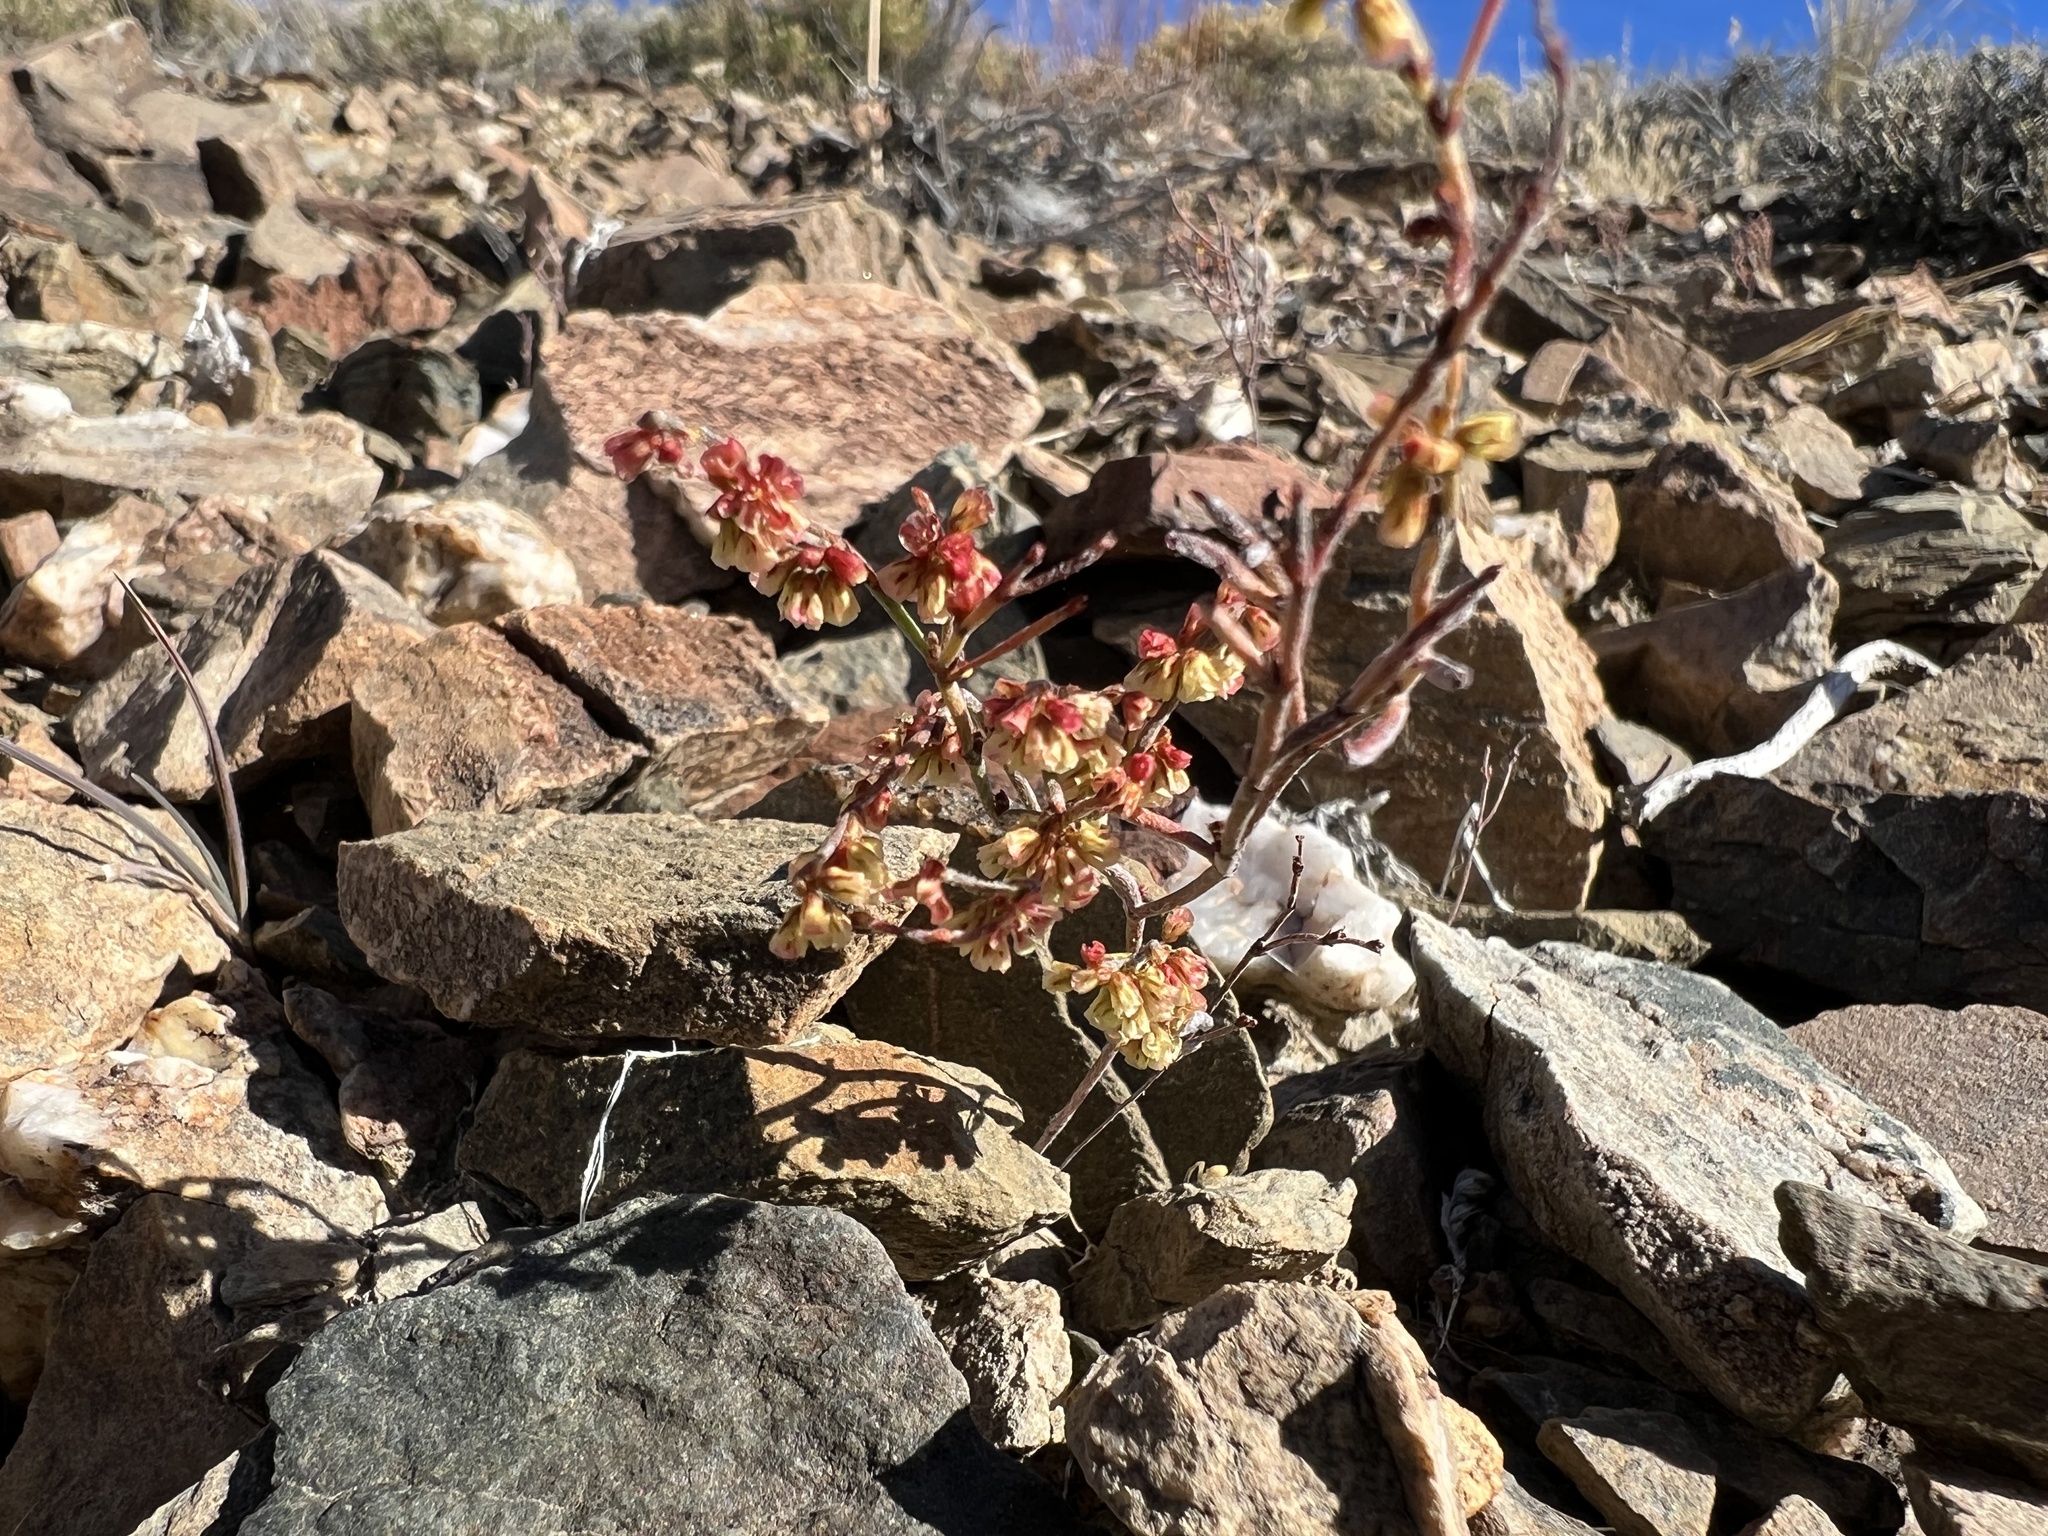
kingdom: Plantae
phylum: Tracheophyta
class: Magnoliopsida
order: Caryophyllales
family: Polygonaceae
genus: Eriogonum
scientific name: Eriogonum nidularium
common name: Bird's-nest wild buckwheat
